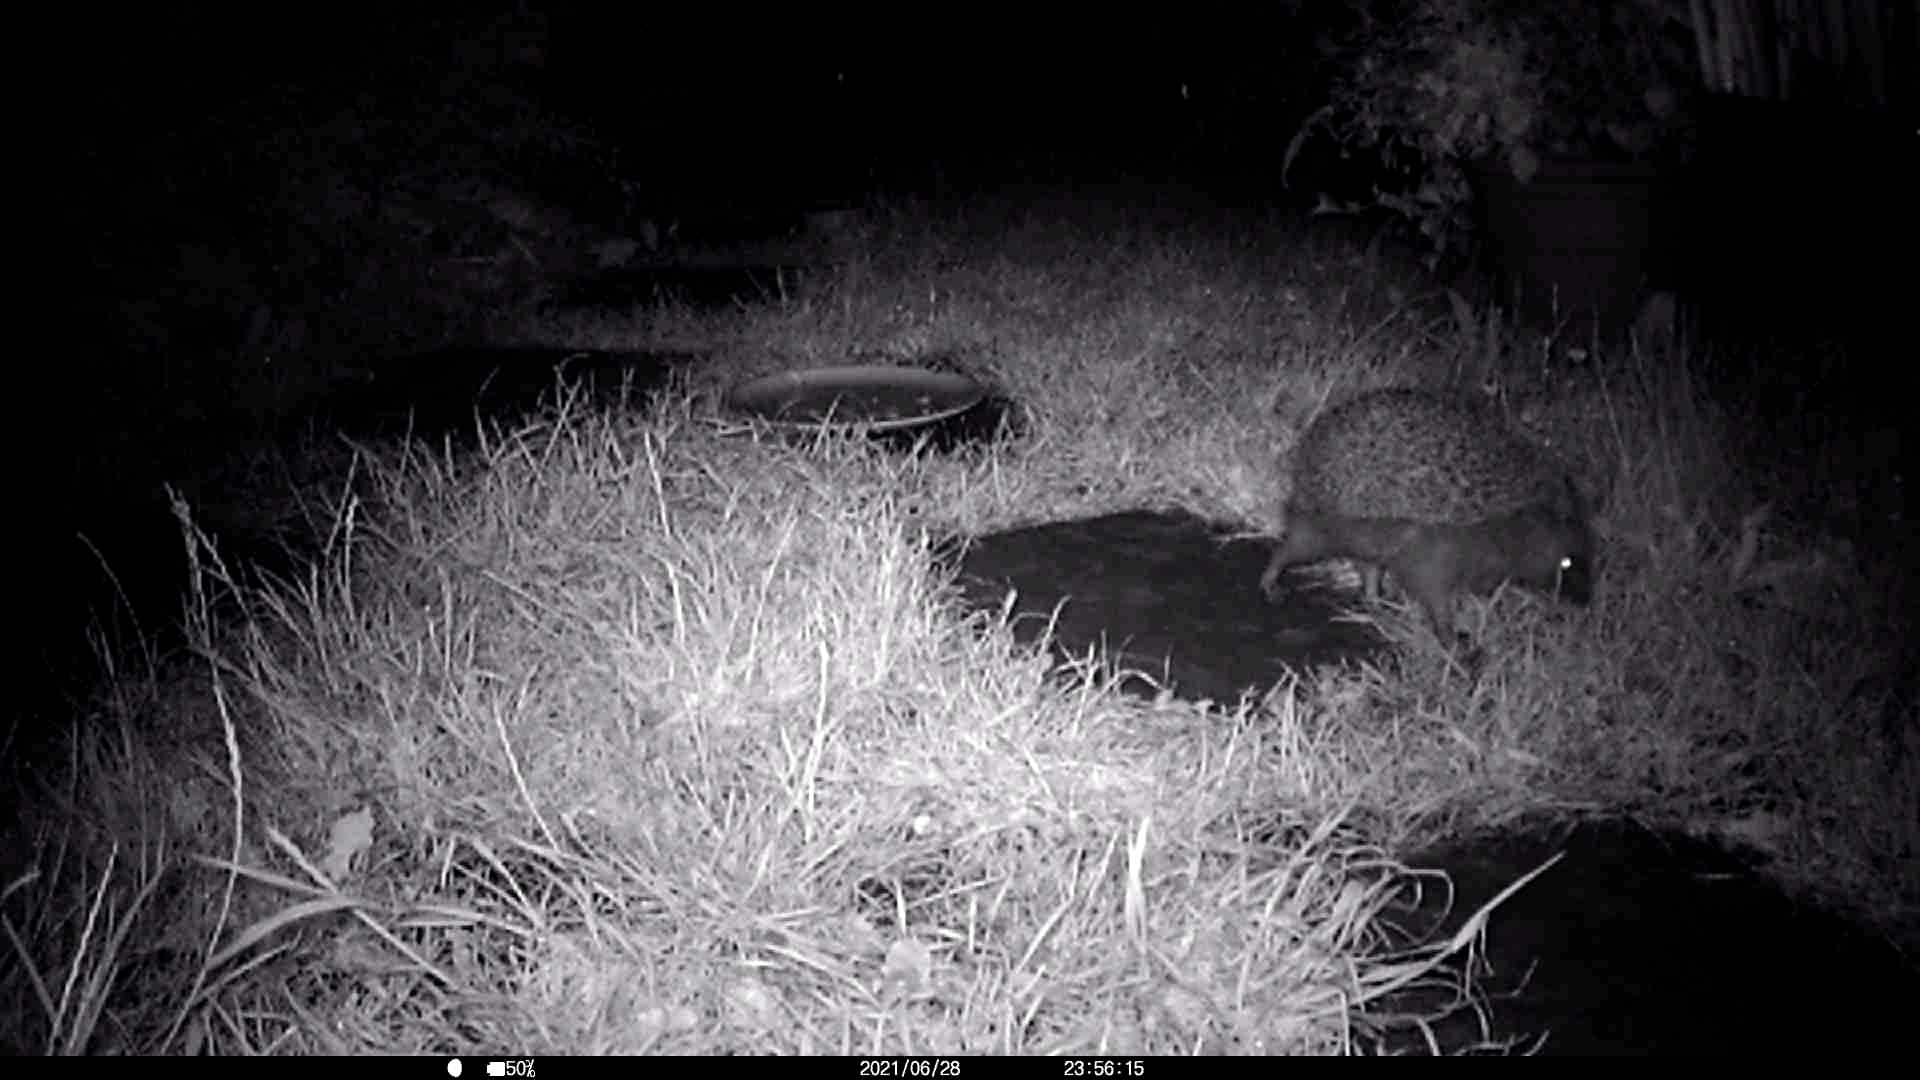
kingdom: Animalia
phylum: Chordata
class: Mammalia
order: Erinaceomorpha
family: Erinaceidae
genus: Erinaceus
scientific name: Erinaceus europaeus
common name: West european hedgehog
